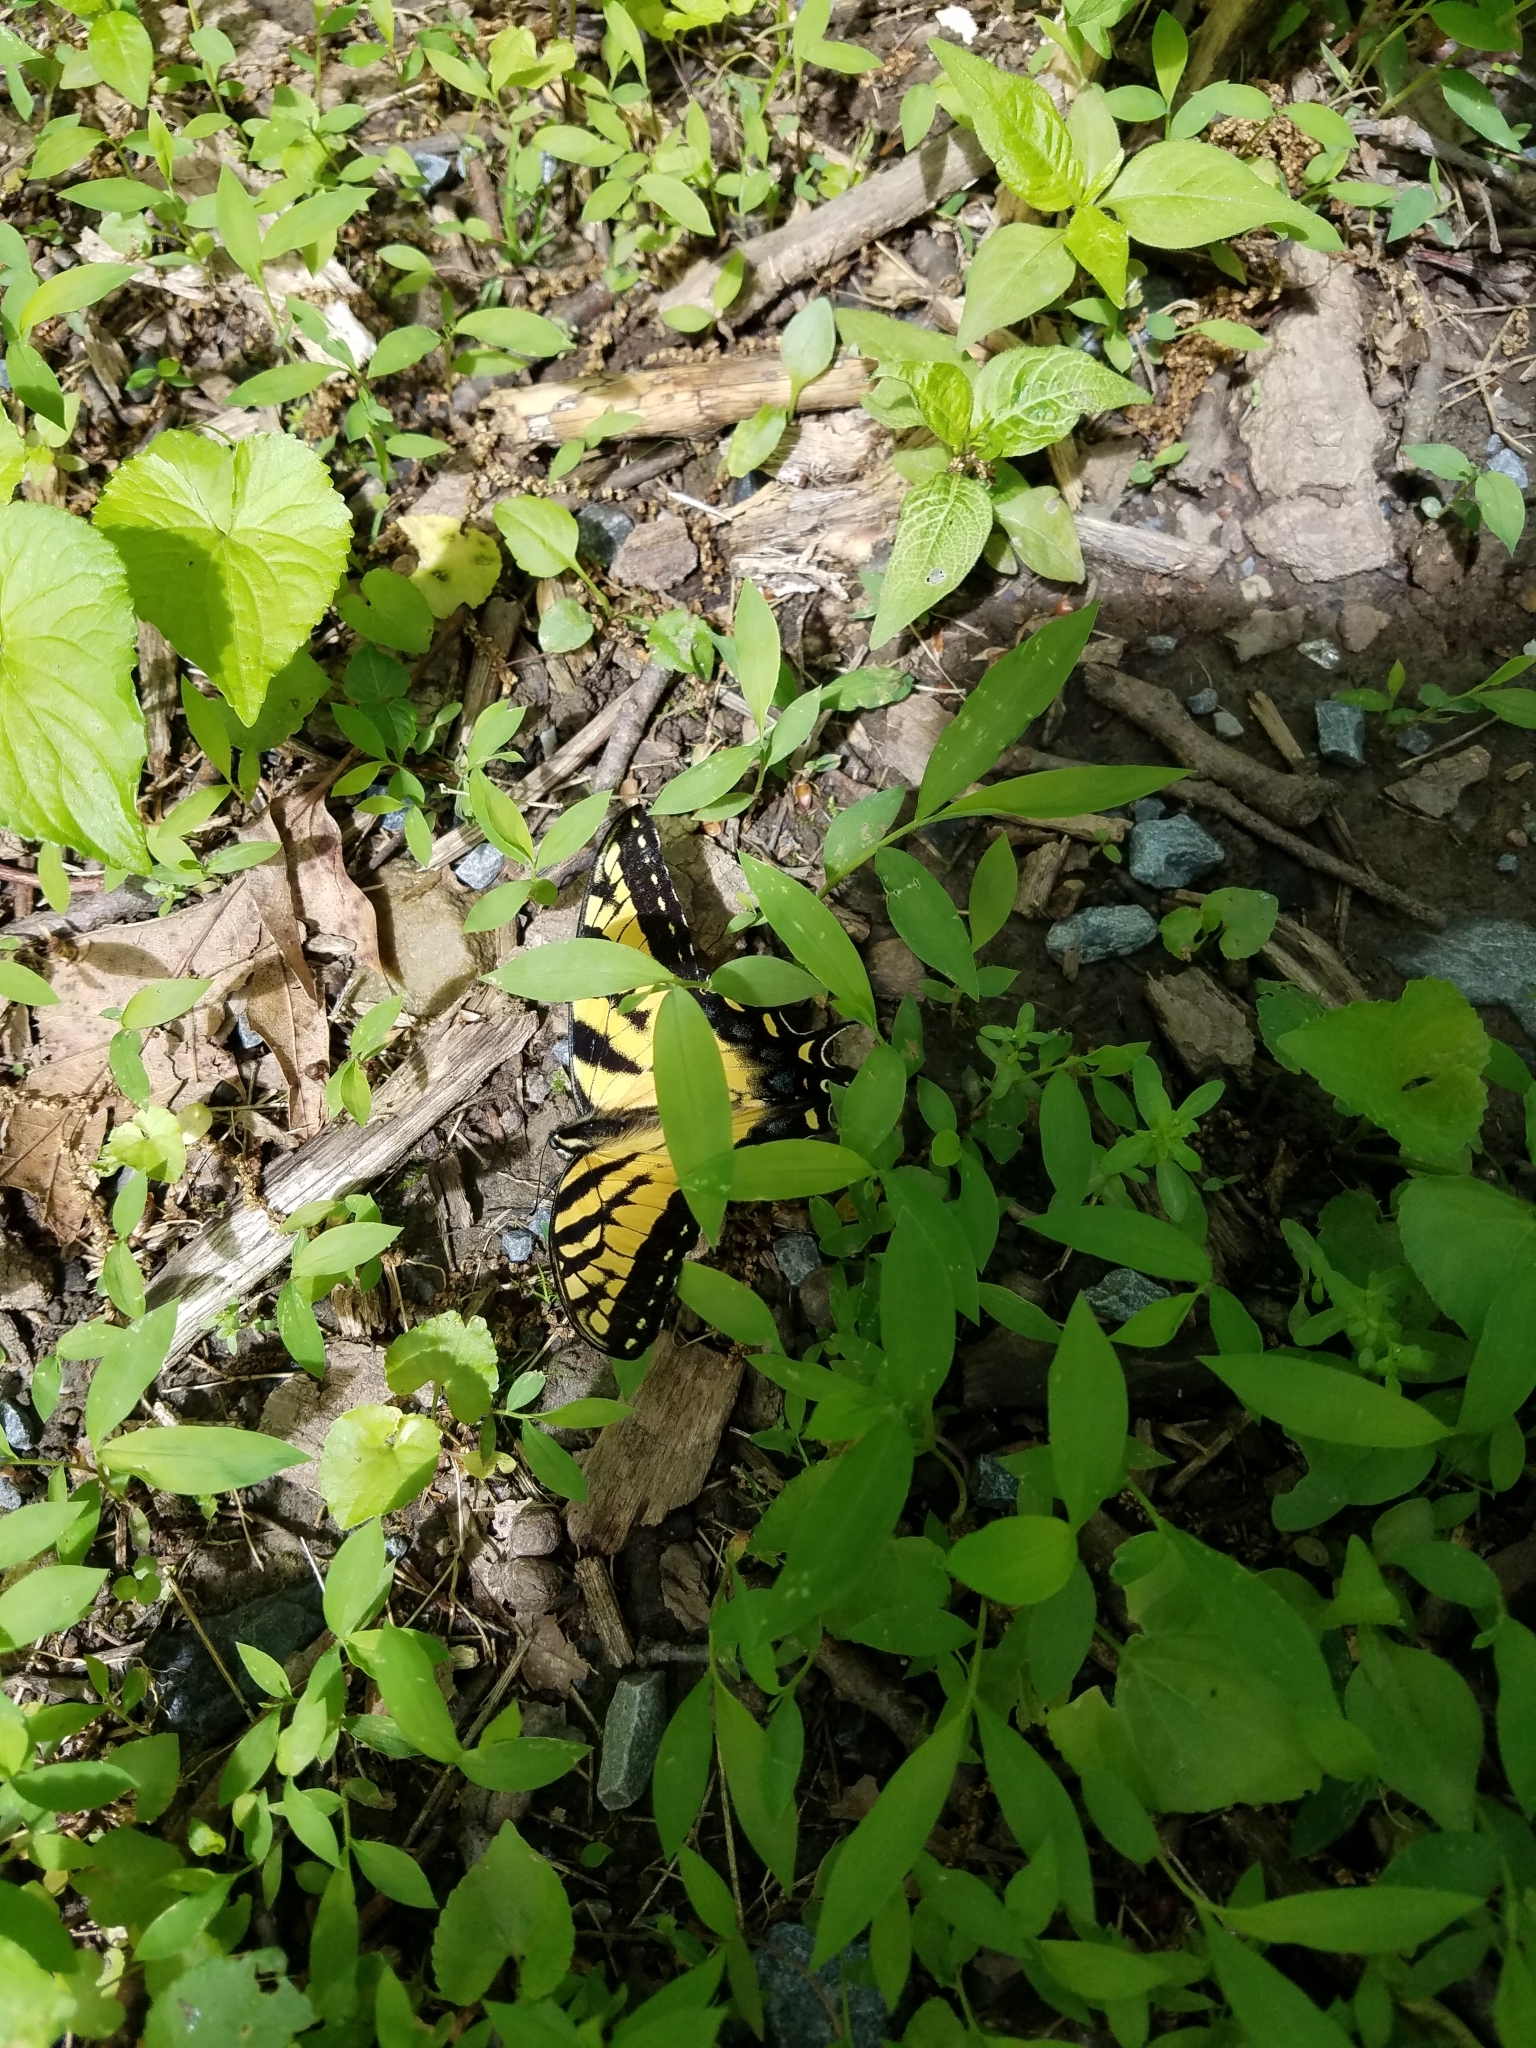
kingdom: Animalia
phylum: Arthropoda
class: Insecta
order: Lepidoptera
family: Papilionidae
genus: Papilio
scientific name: Papilio glaucus
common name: Tiger swallowtail
